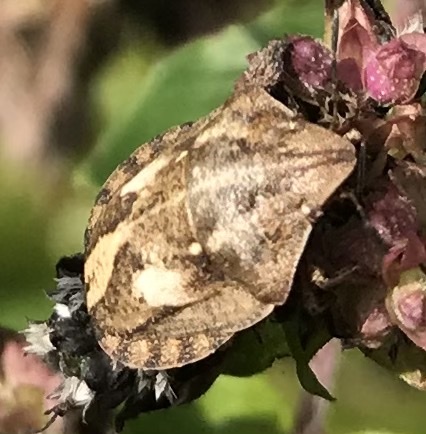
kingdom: Animalia
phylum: Arthropoda
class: Insecta
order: Hemiptera
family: Scutelleridae
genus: Eurygaster
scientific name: Eurygaster testudinaria
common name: Tortoise bug
